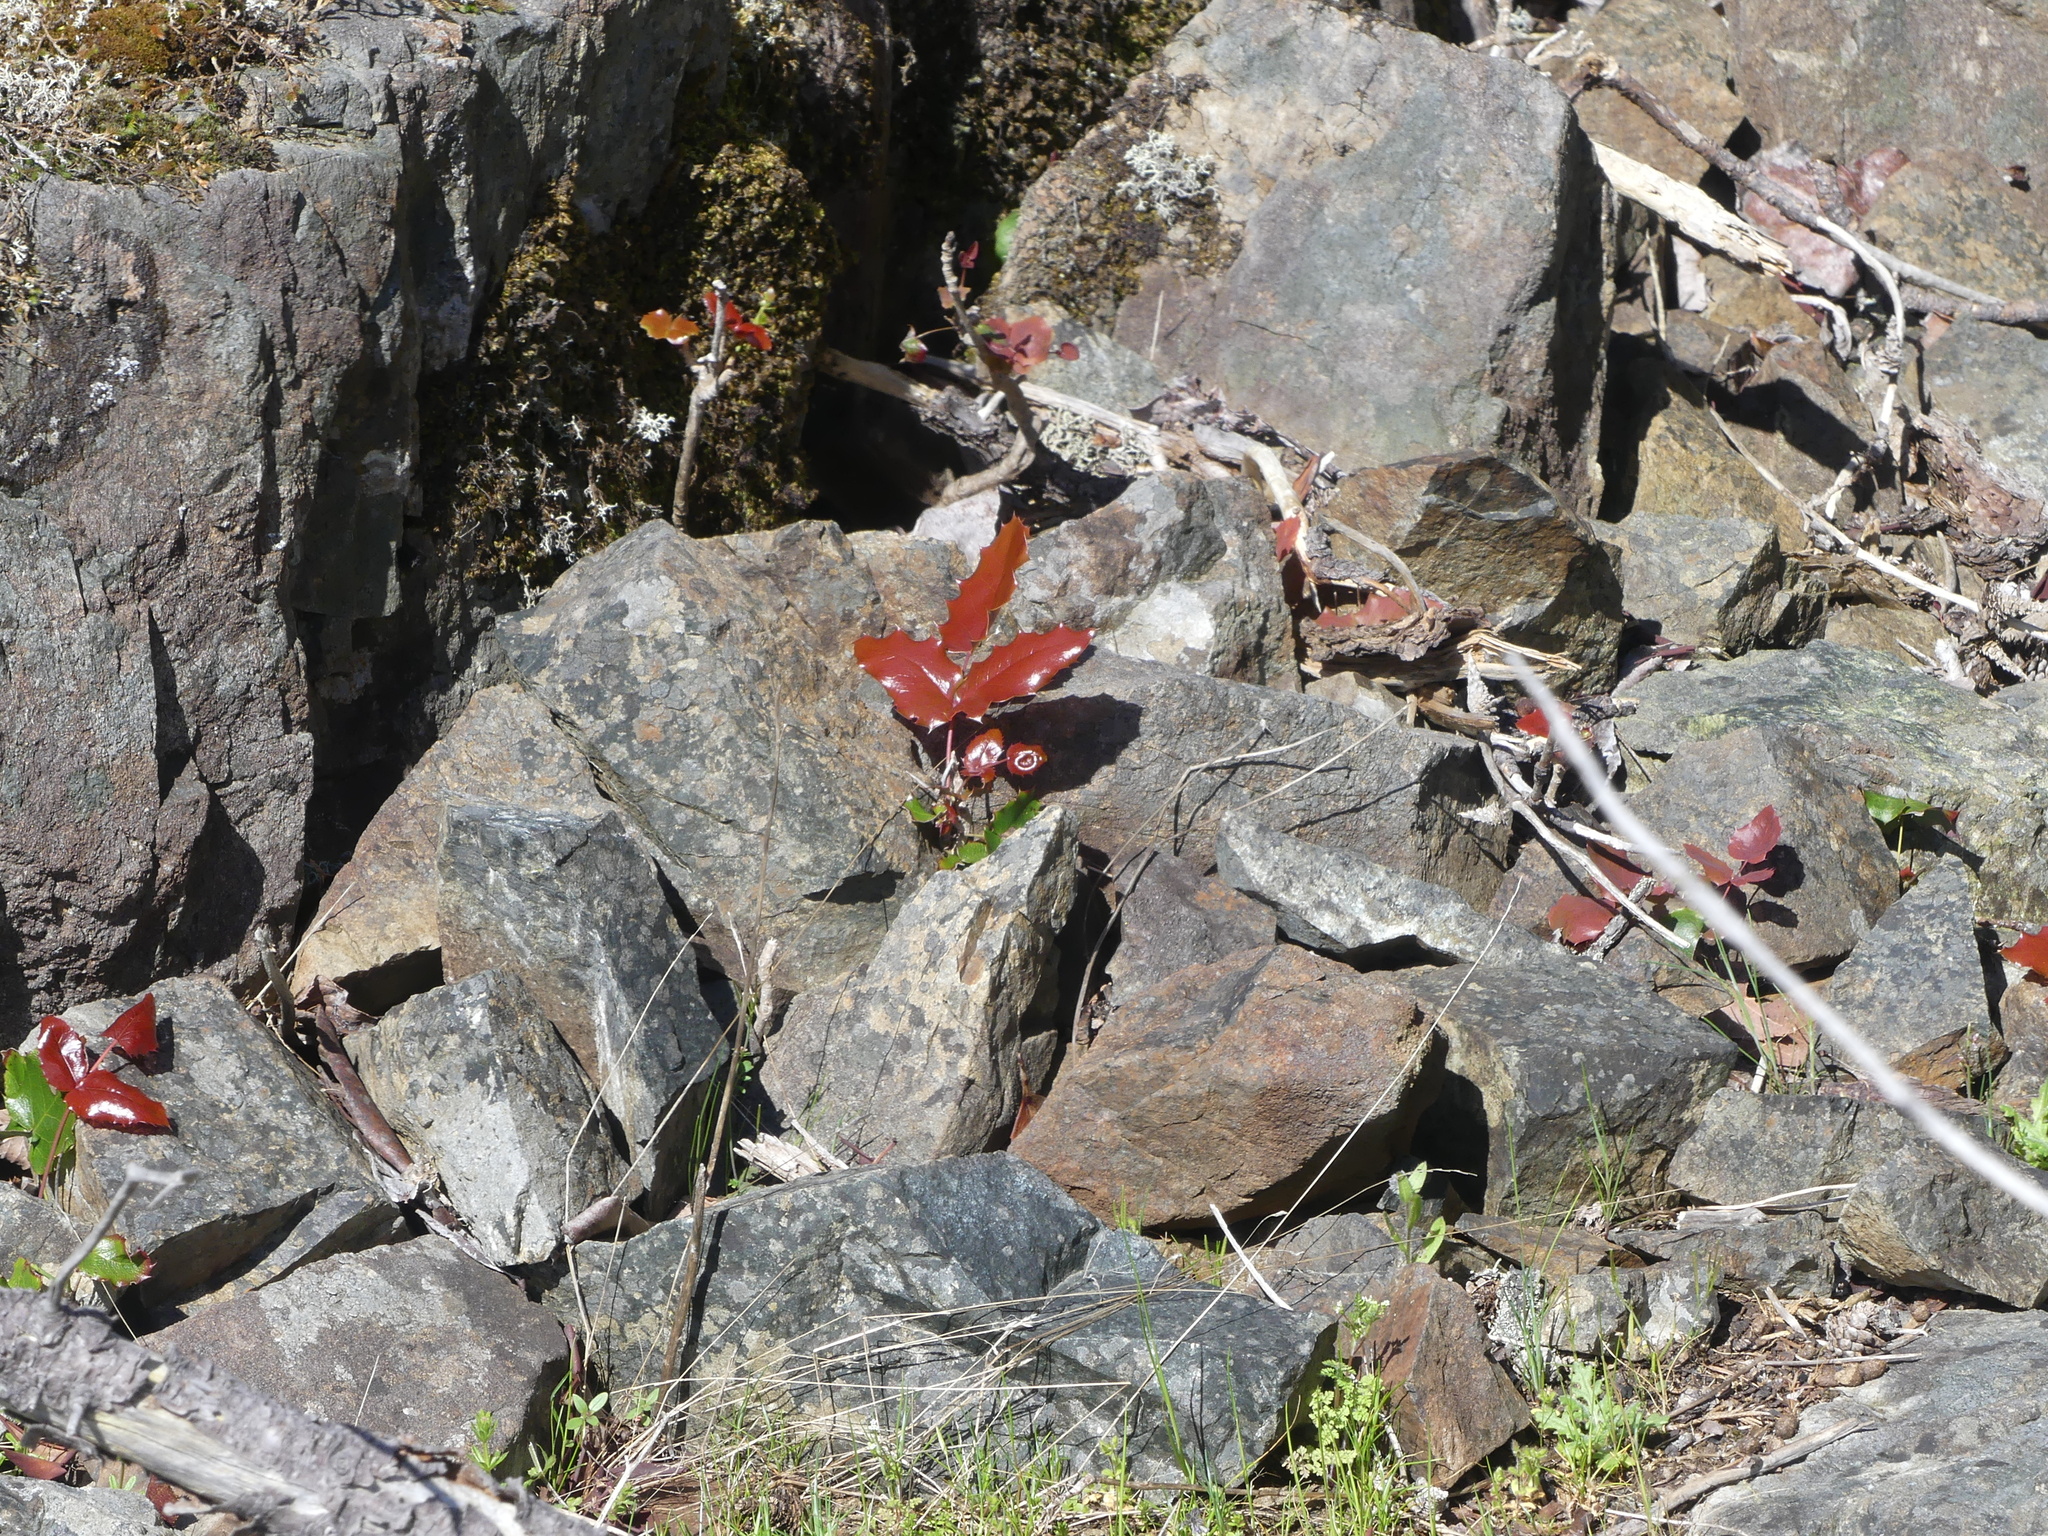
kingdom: Plantae
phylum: Tracheophyta
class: Magnoliopsida
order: Ranunculales
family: Berberidaceae
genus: Mahonia
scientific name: Mahonia aquifolium
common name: Oregon-grape
